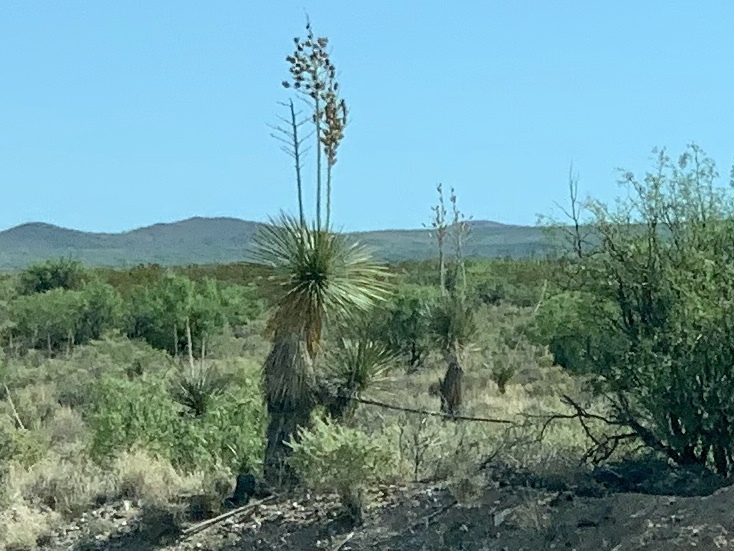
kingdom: Plantae
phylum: Tracheophyta
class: Liliopsida
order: Asparagales
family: Asparagaceae
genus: Yucca
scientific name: Yucca elata
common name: Palmella
